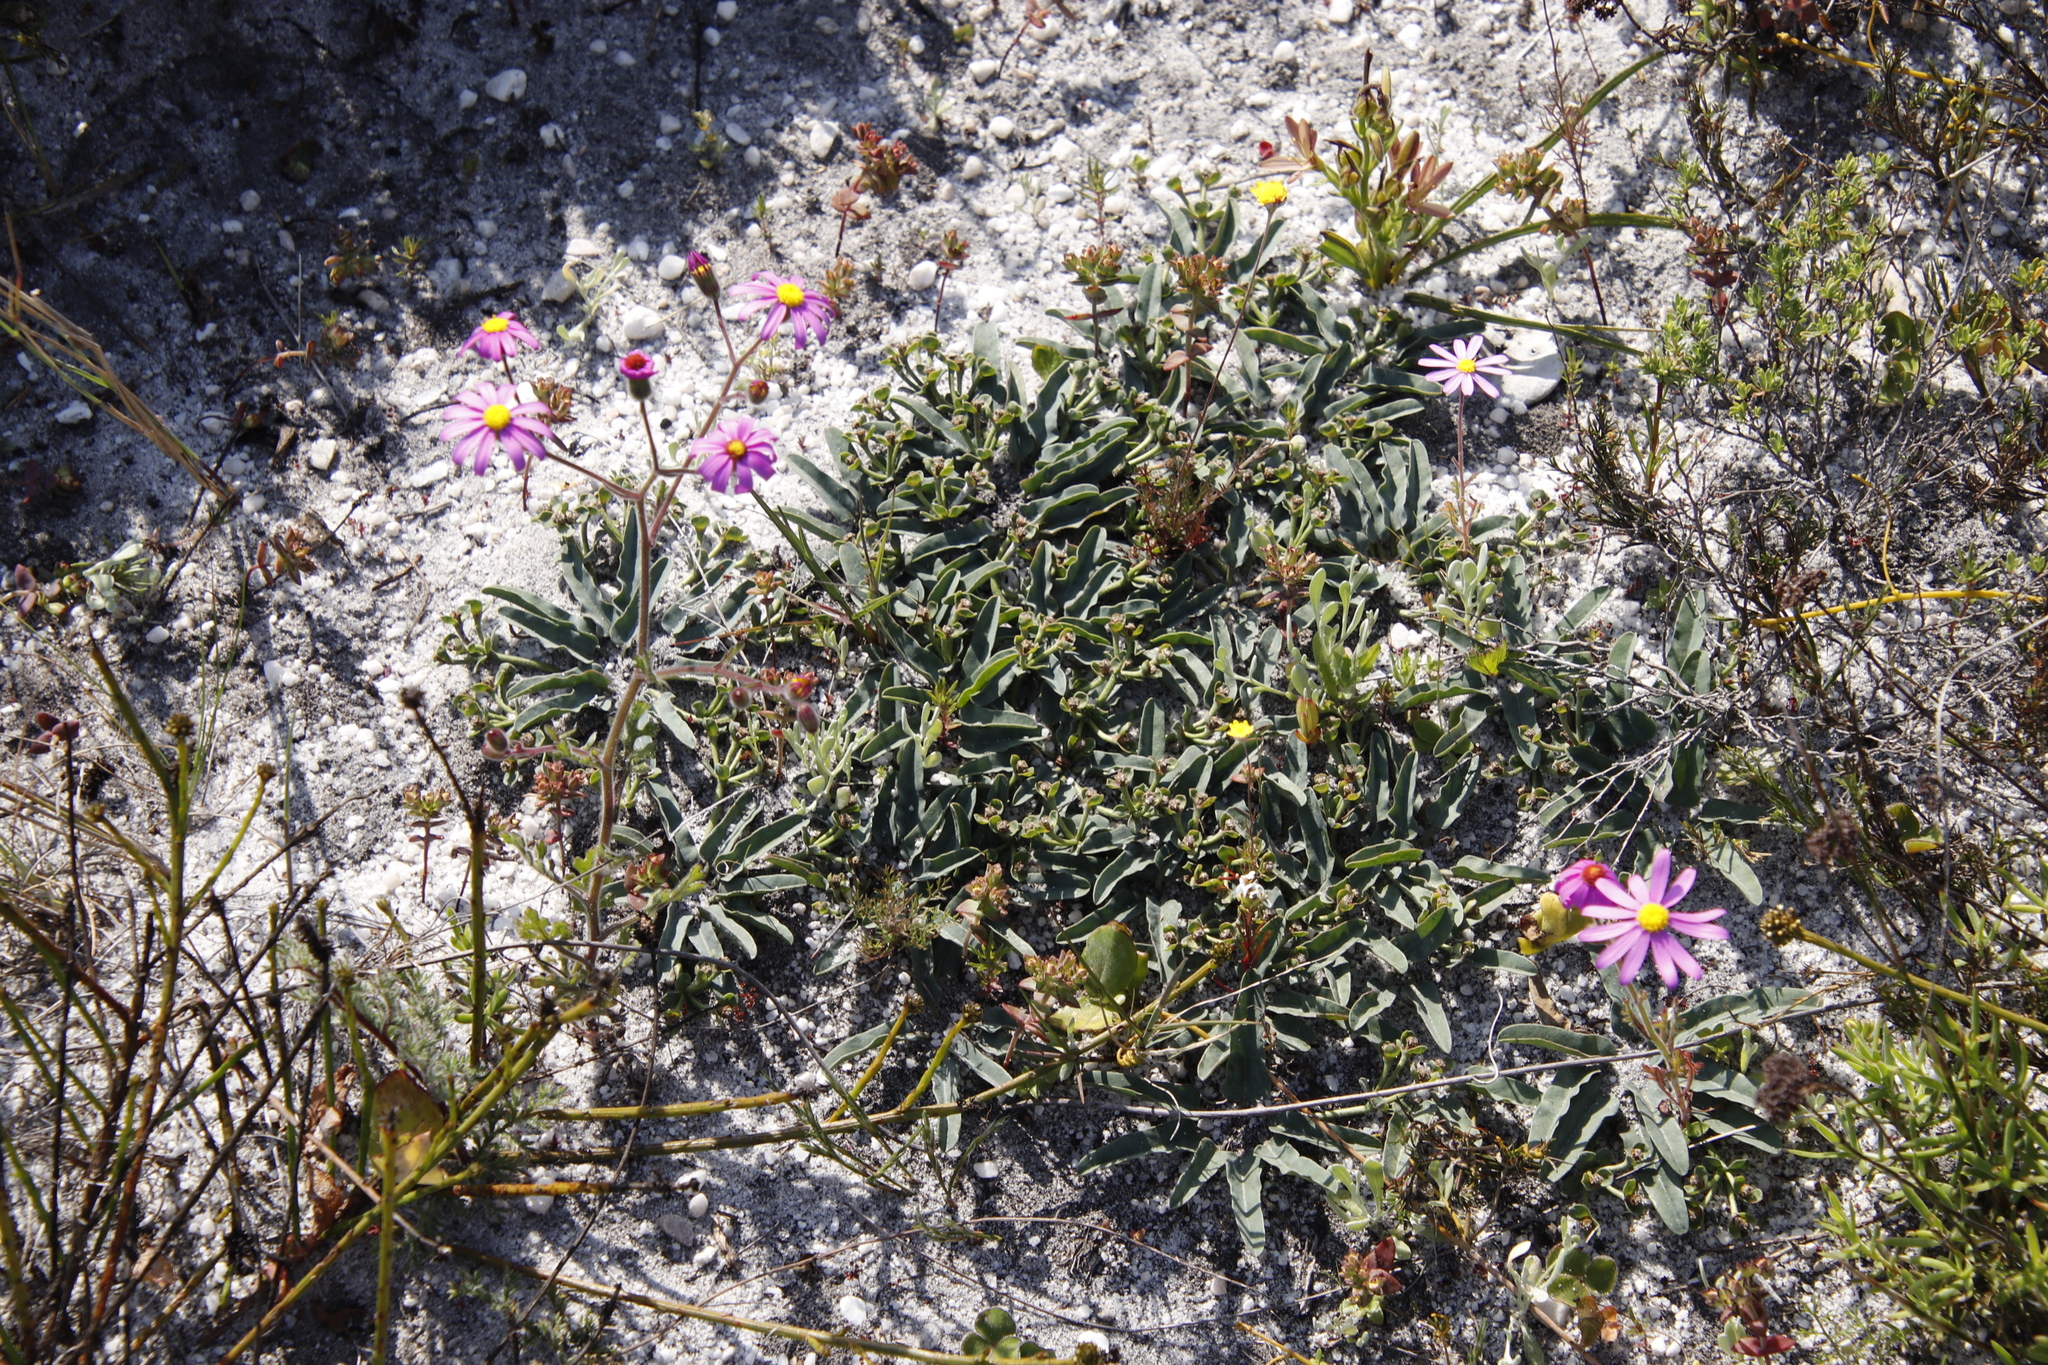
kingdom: Plantae
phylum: Tracheophyta
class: Magnoliopsida
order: Malpighiales
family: Euphorbiaceae
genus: Euphorbia
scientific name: Euphorbia tuberosa
